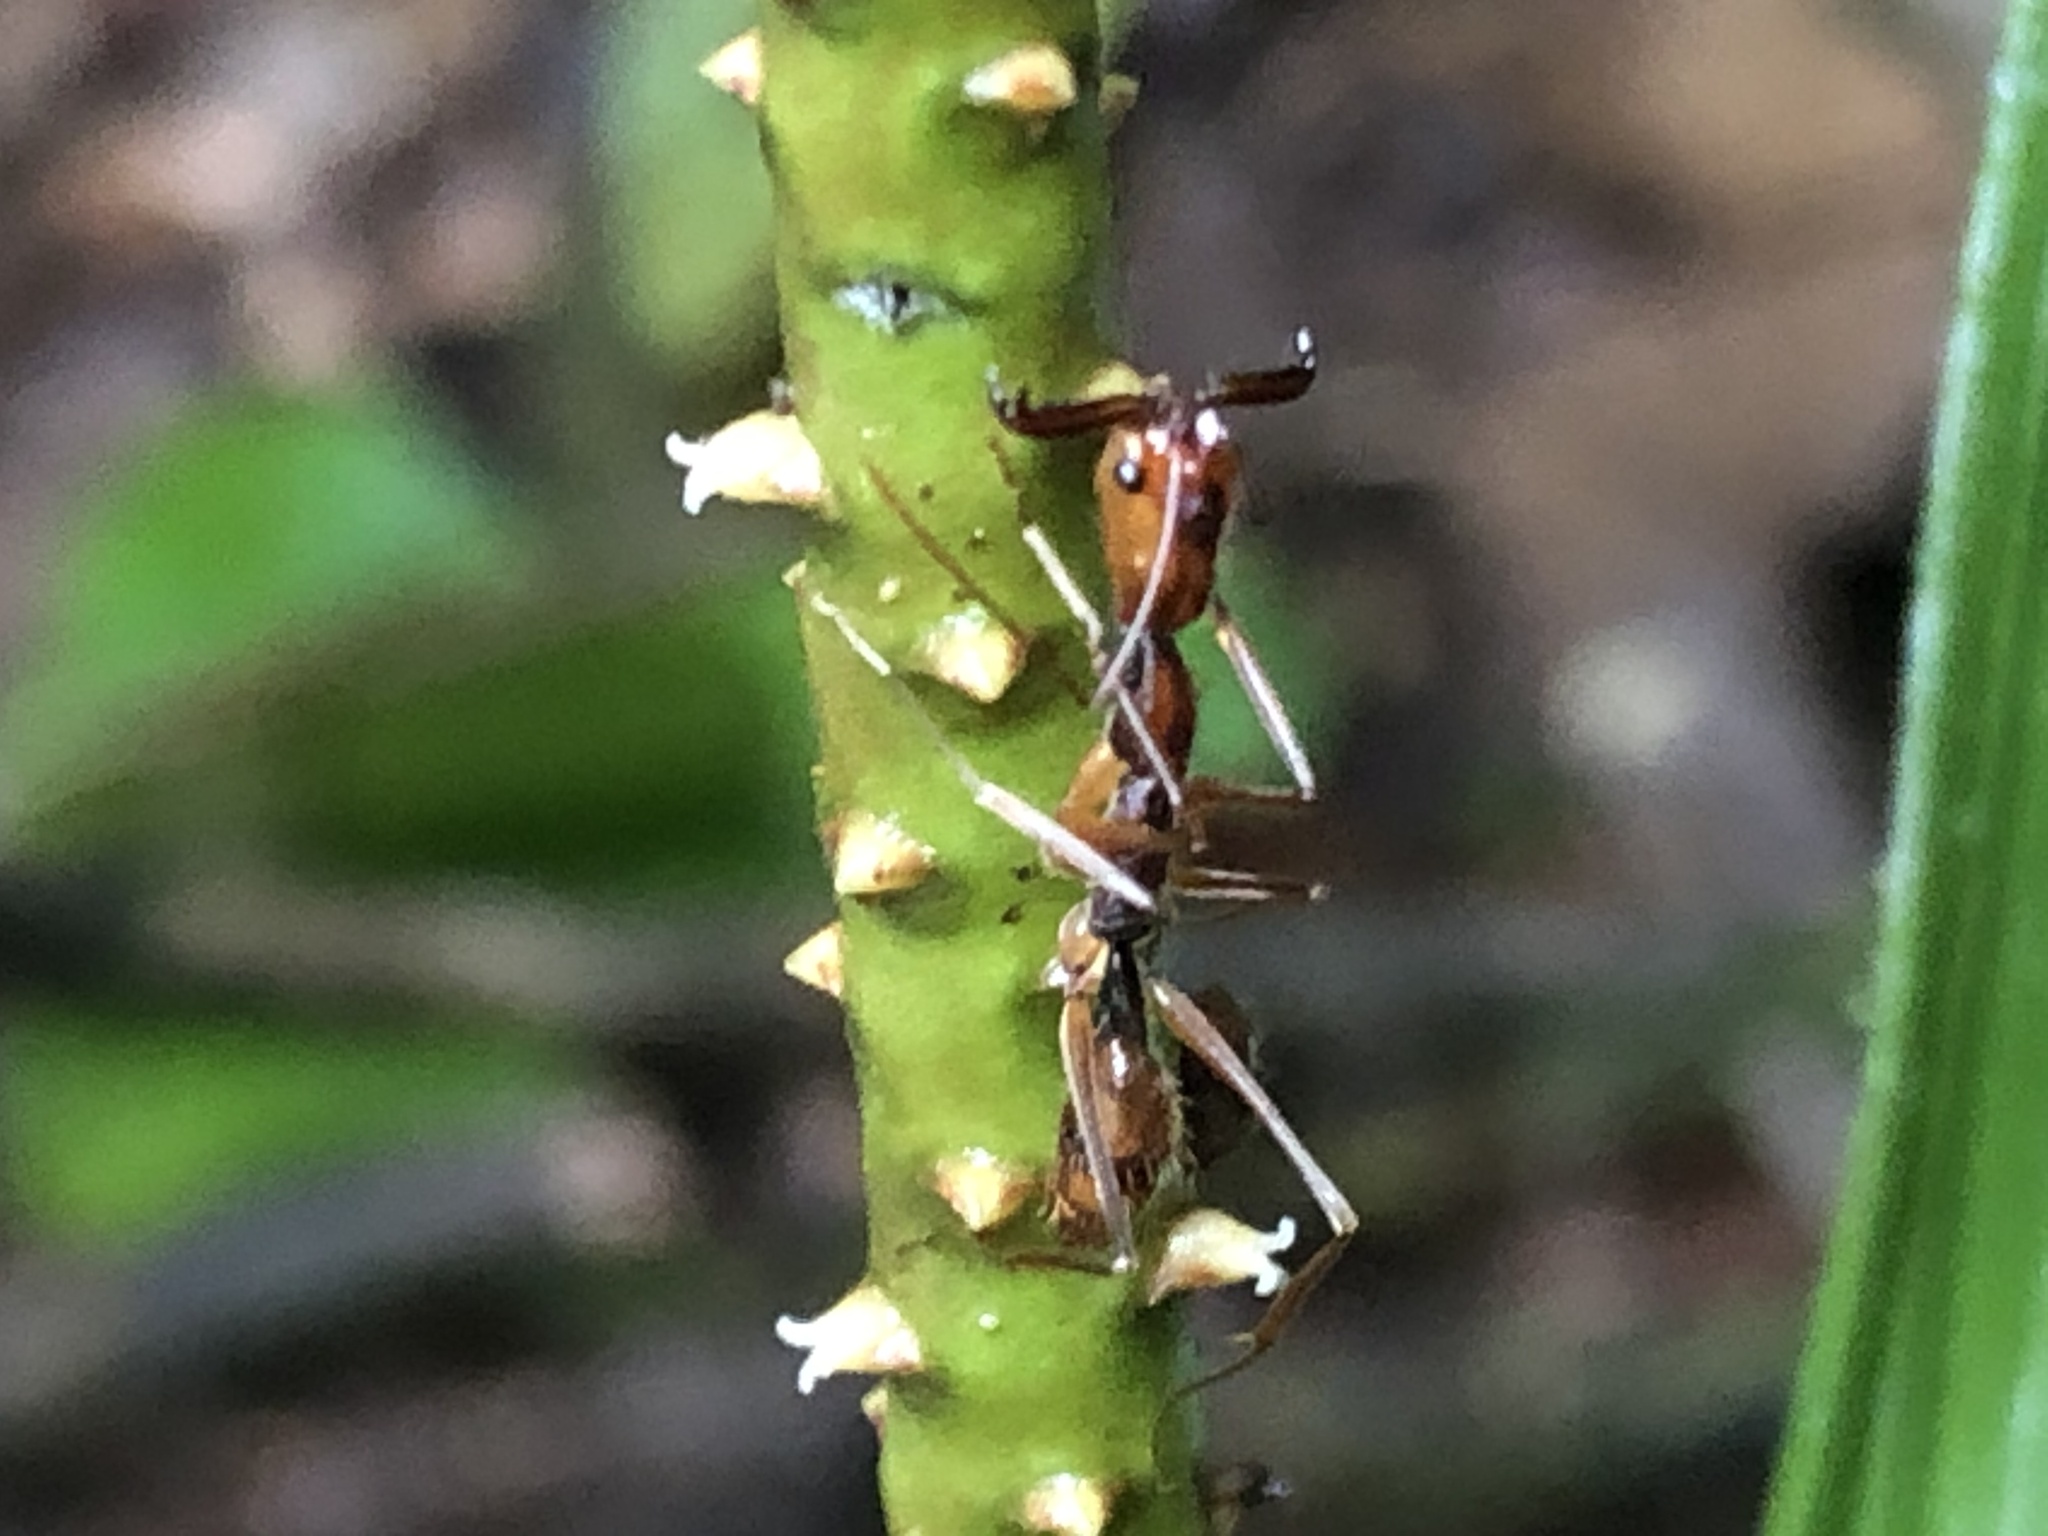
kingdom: Animalia
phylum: Arthropoda
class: Insecta
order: Hymenoptera
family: Formicidae
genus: Odontomachus
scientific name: Odontomachus hastatus
